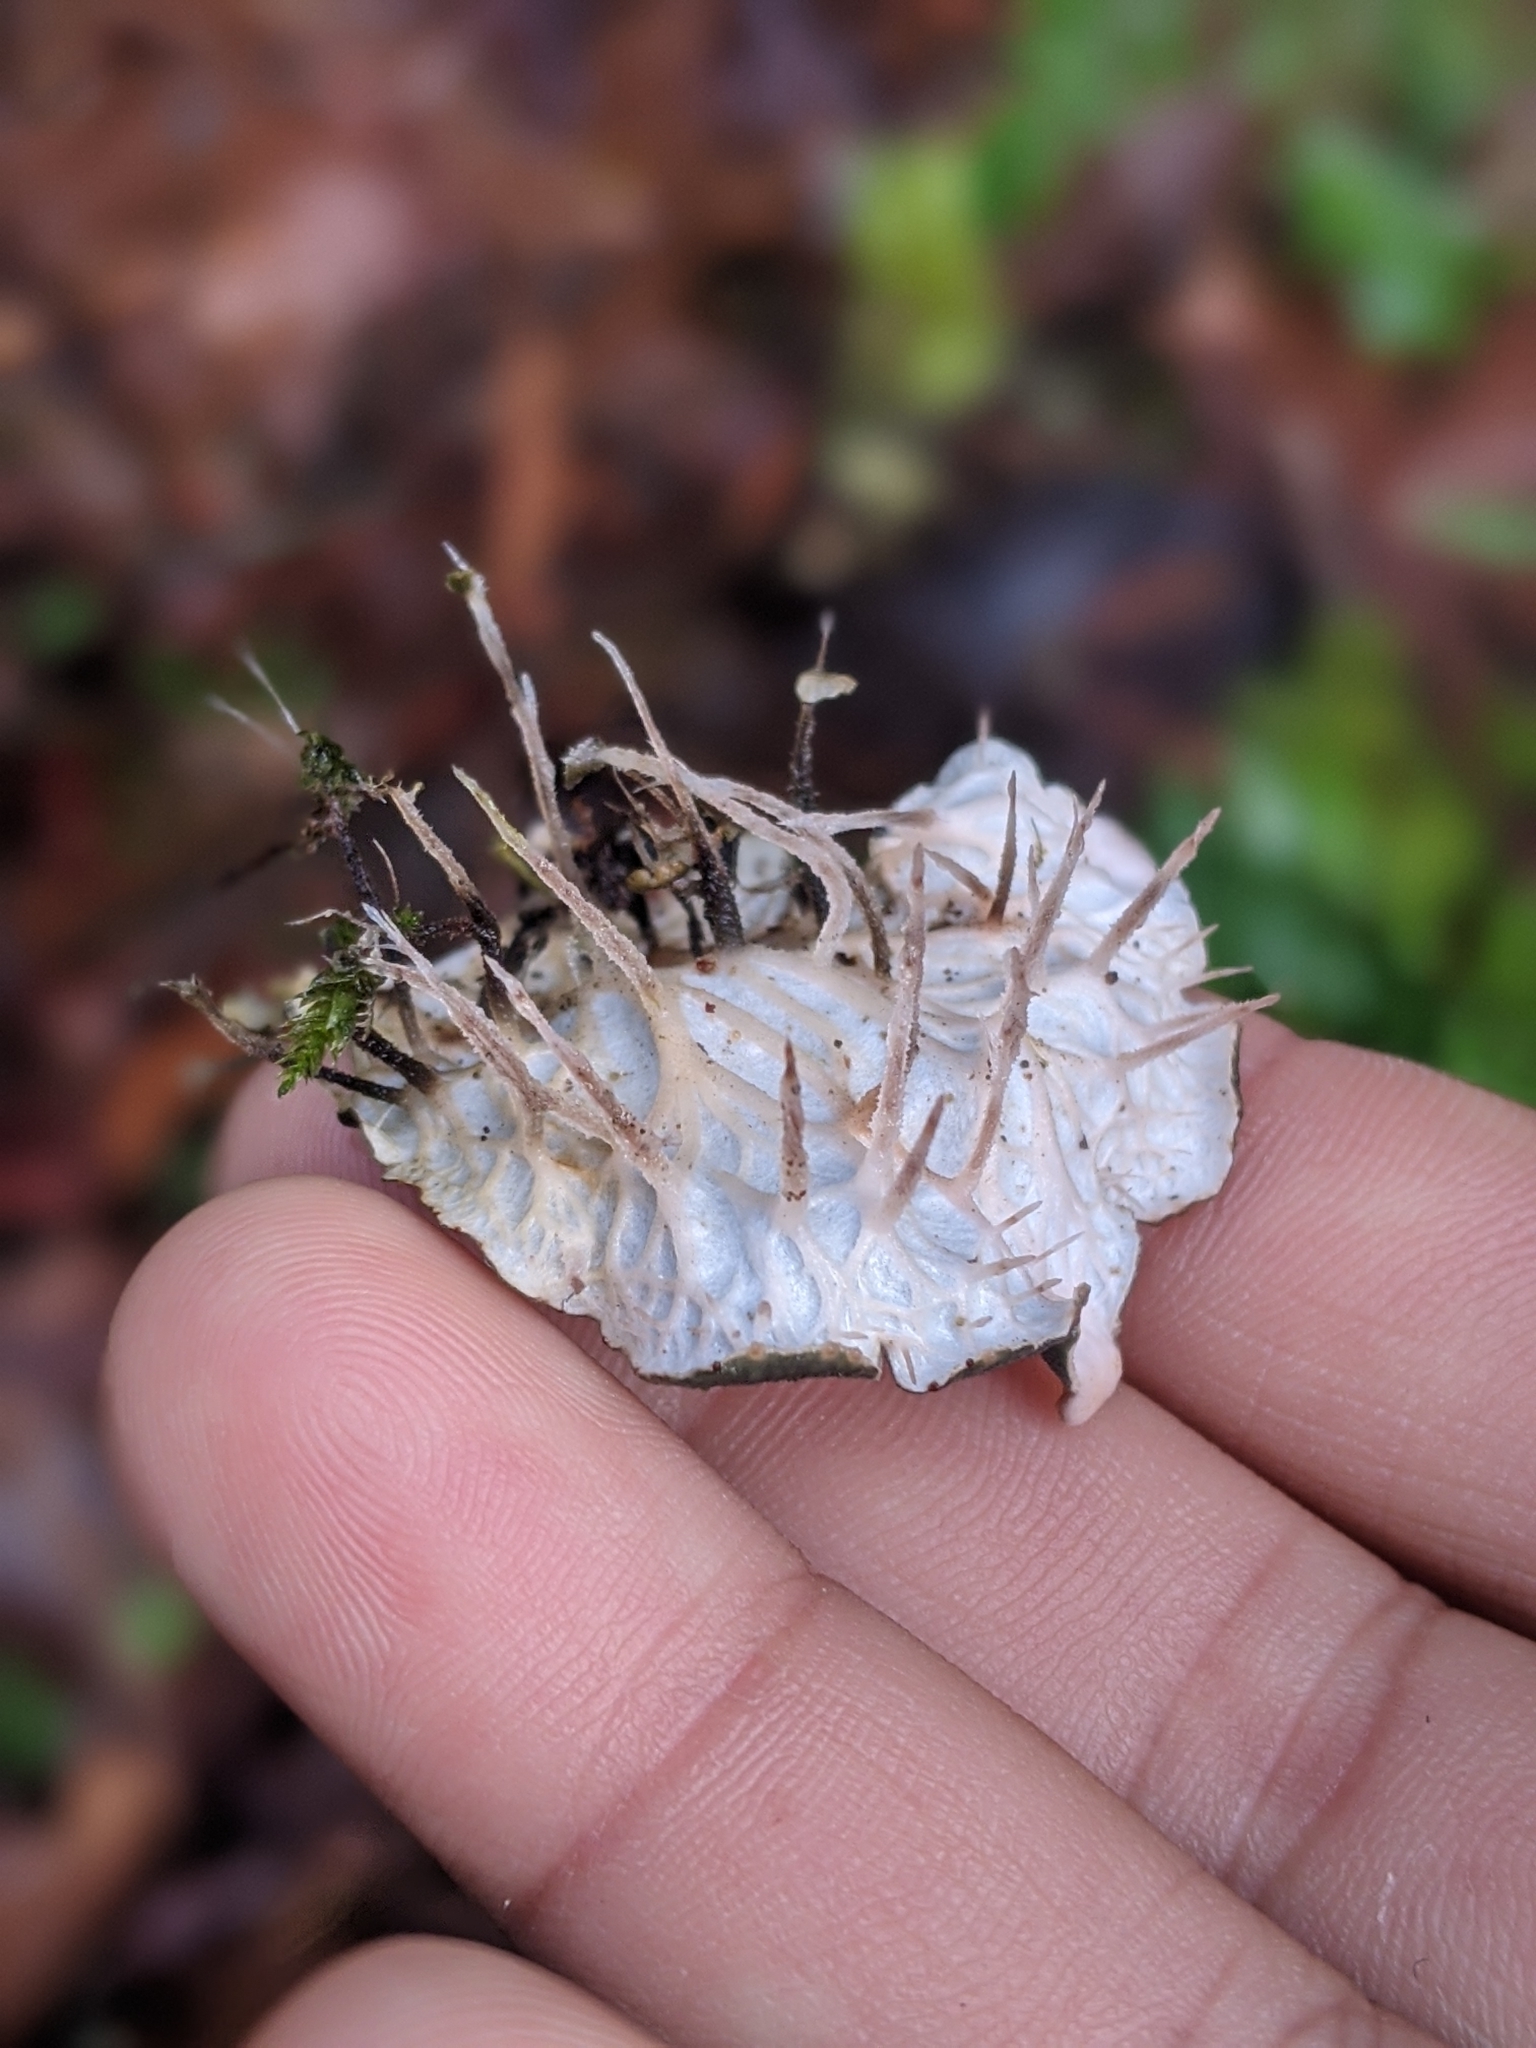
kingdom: Fungi
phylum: Ascomycota
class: Lecanoromycetes
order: Peltigerales
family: Peltigeraceae
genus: Peltigera
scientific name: Peltigera membranacea
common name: Membranous pelt lichen
